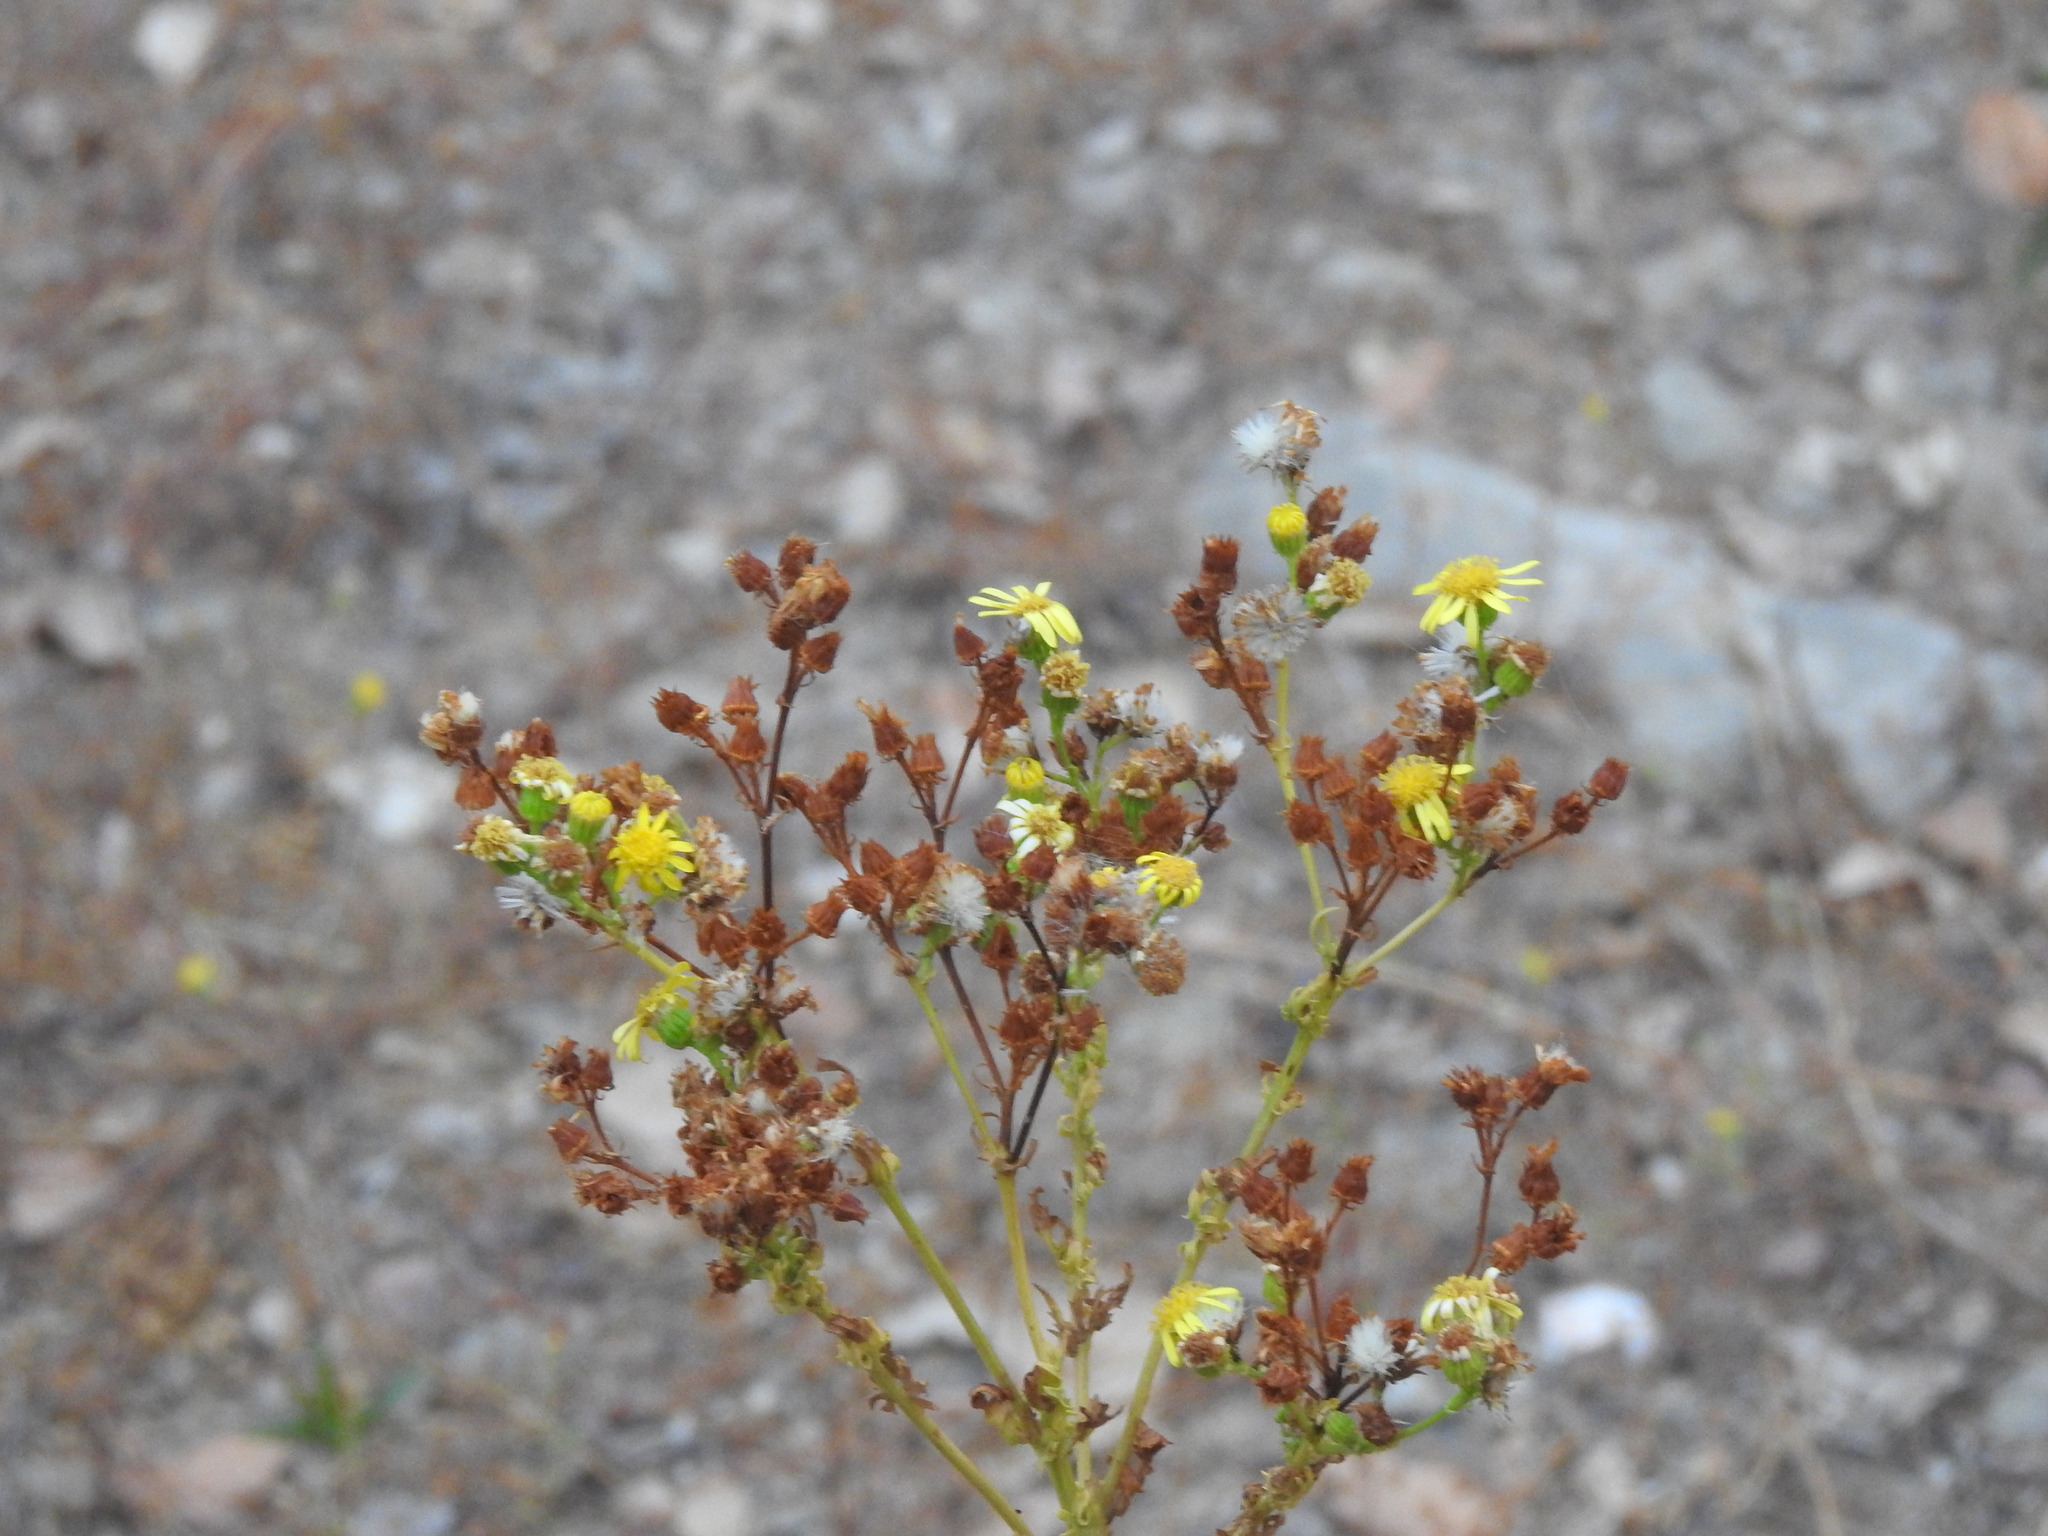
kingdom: Plantae
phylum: Tracheophyta
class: Magnoliopsida
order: Asterales
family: Asteraceae
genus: Jacobaea
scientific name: Jacobaea vulgaris
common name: Stinking willie
